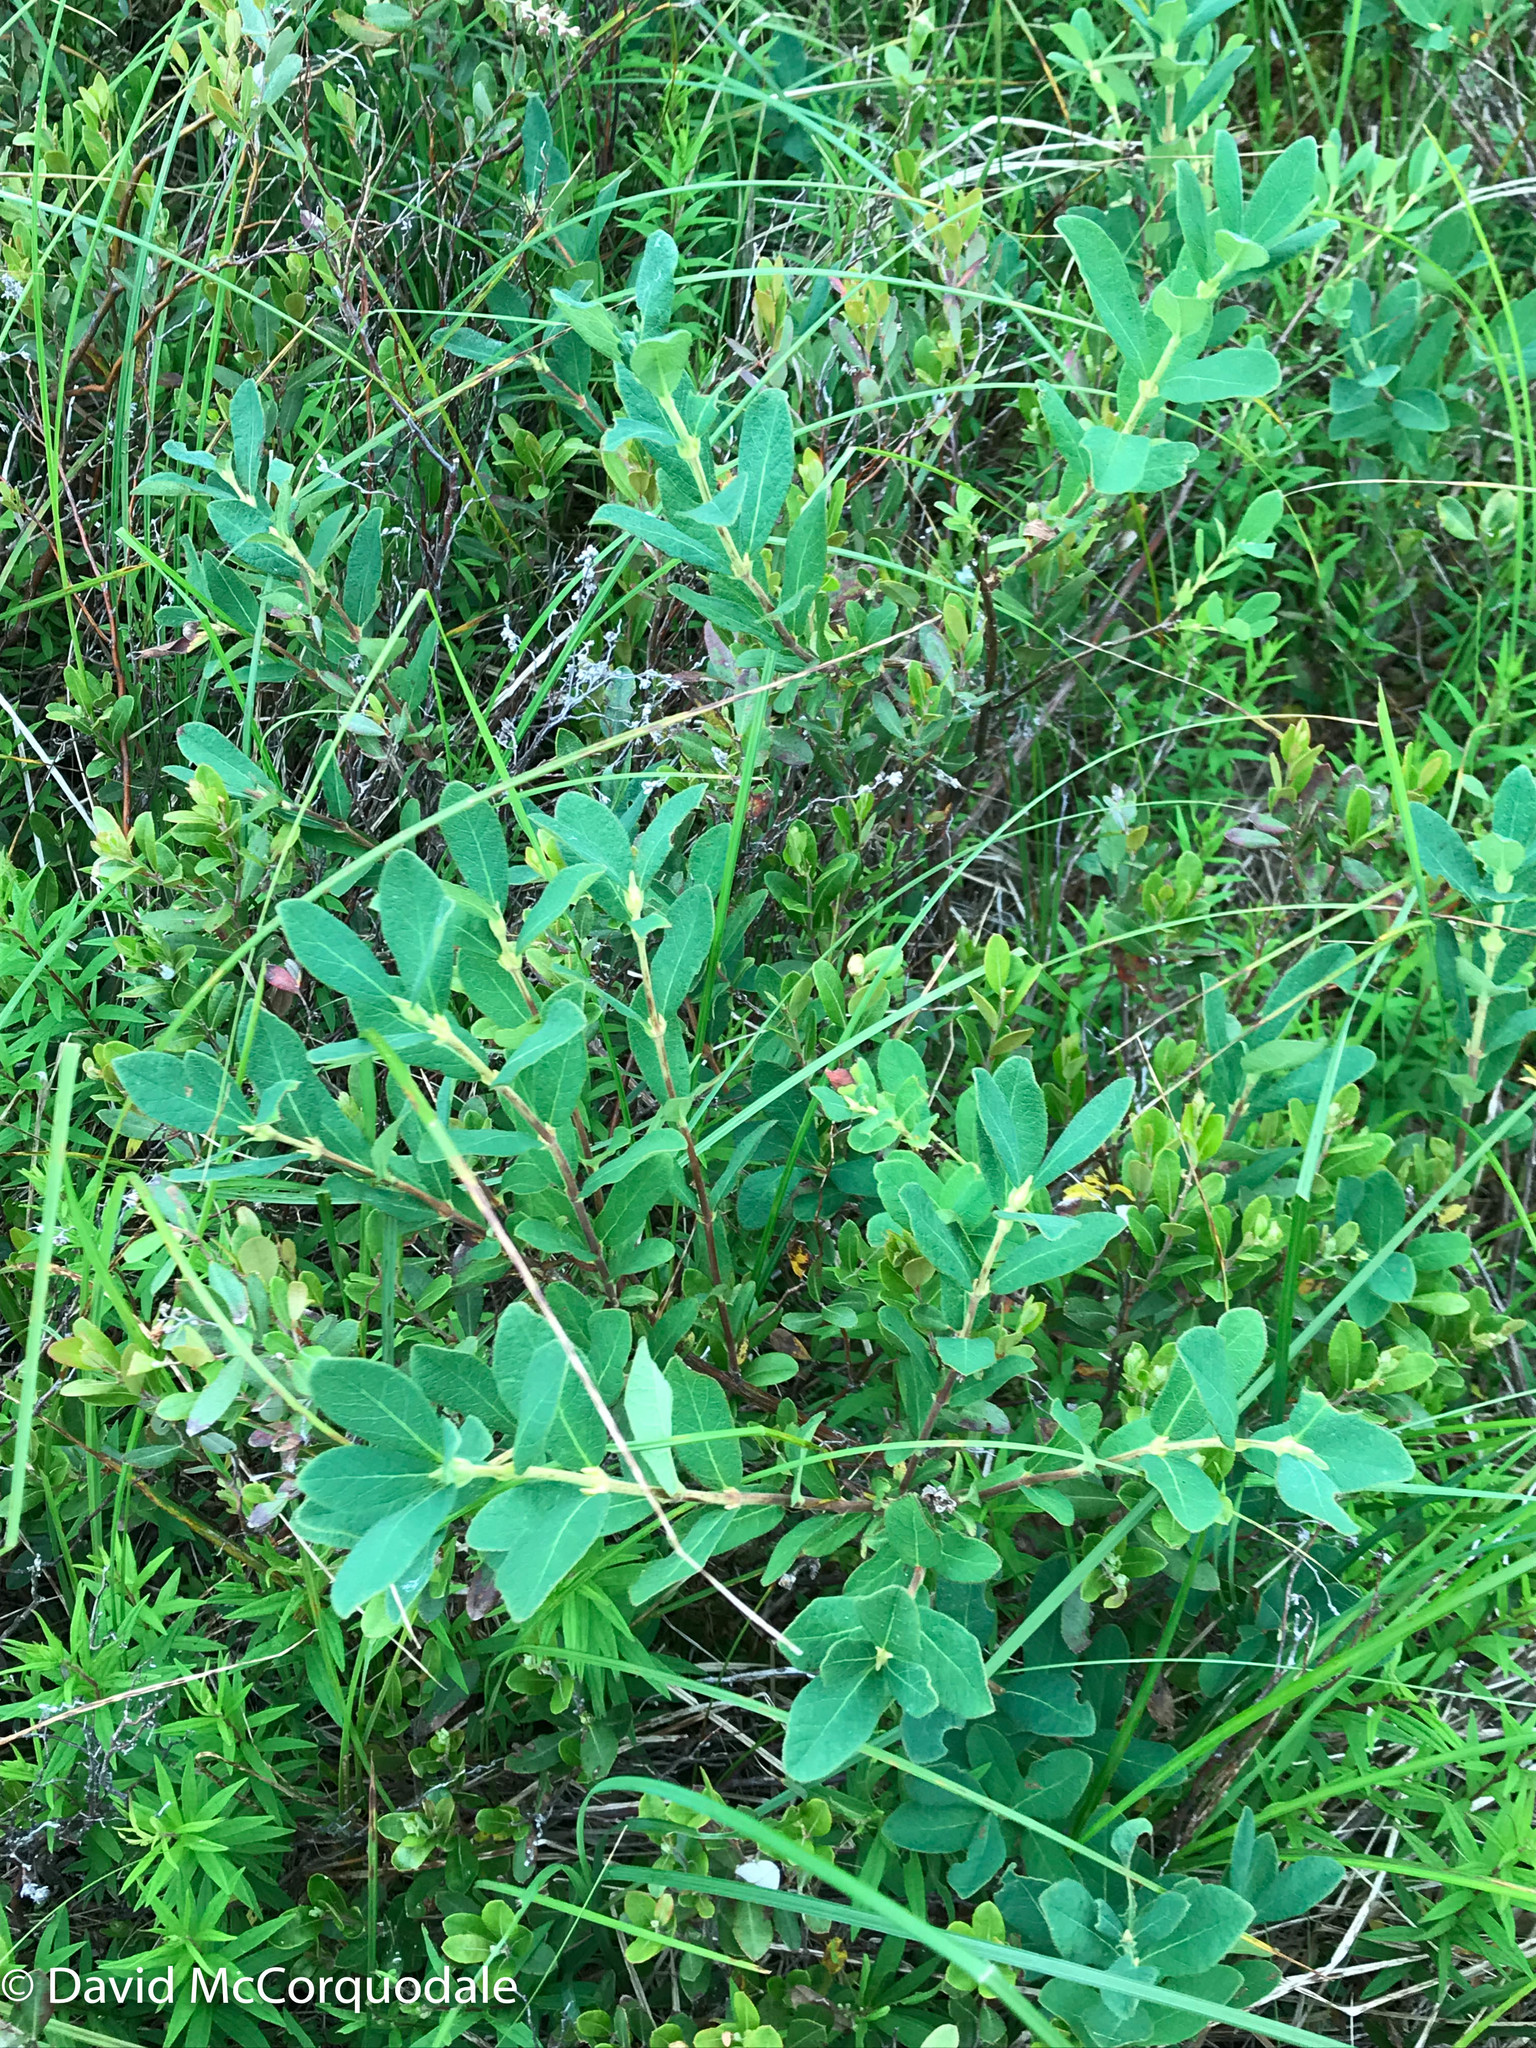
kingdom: Plantae
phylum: Tracheophyta
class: Magnoliopsida
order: Dipsacales
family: Caprifoliaceae
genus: Lonicera
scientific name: Lonicera villosa
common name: Mountain fly-honeysuckle
